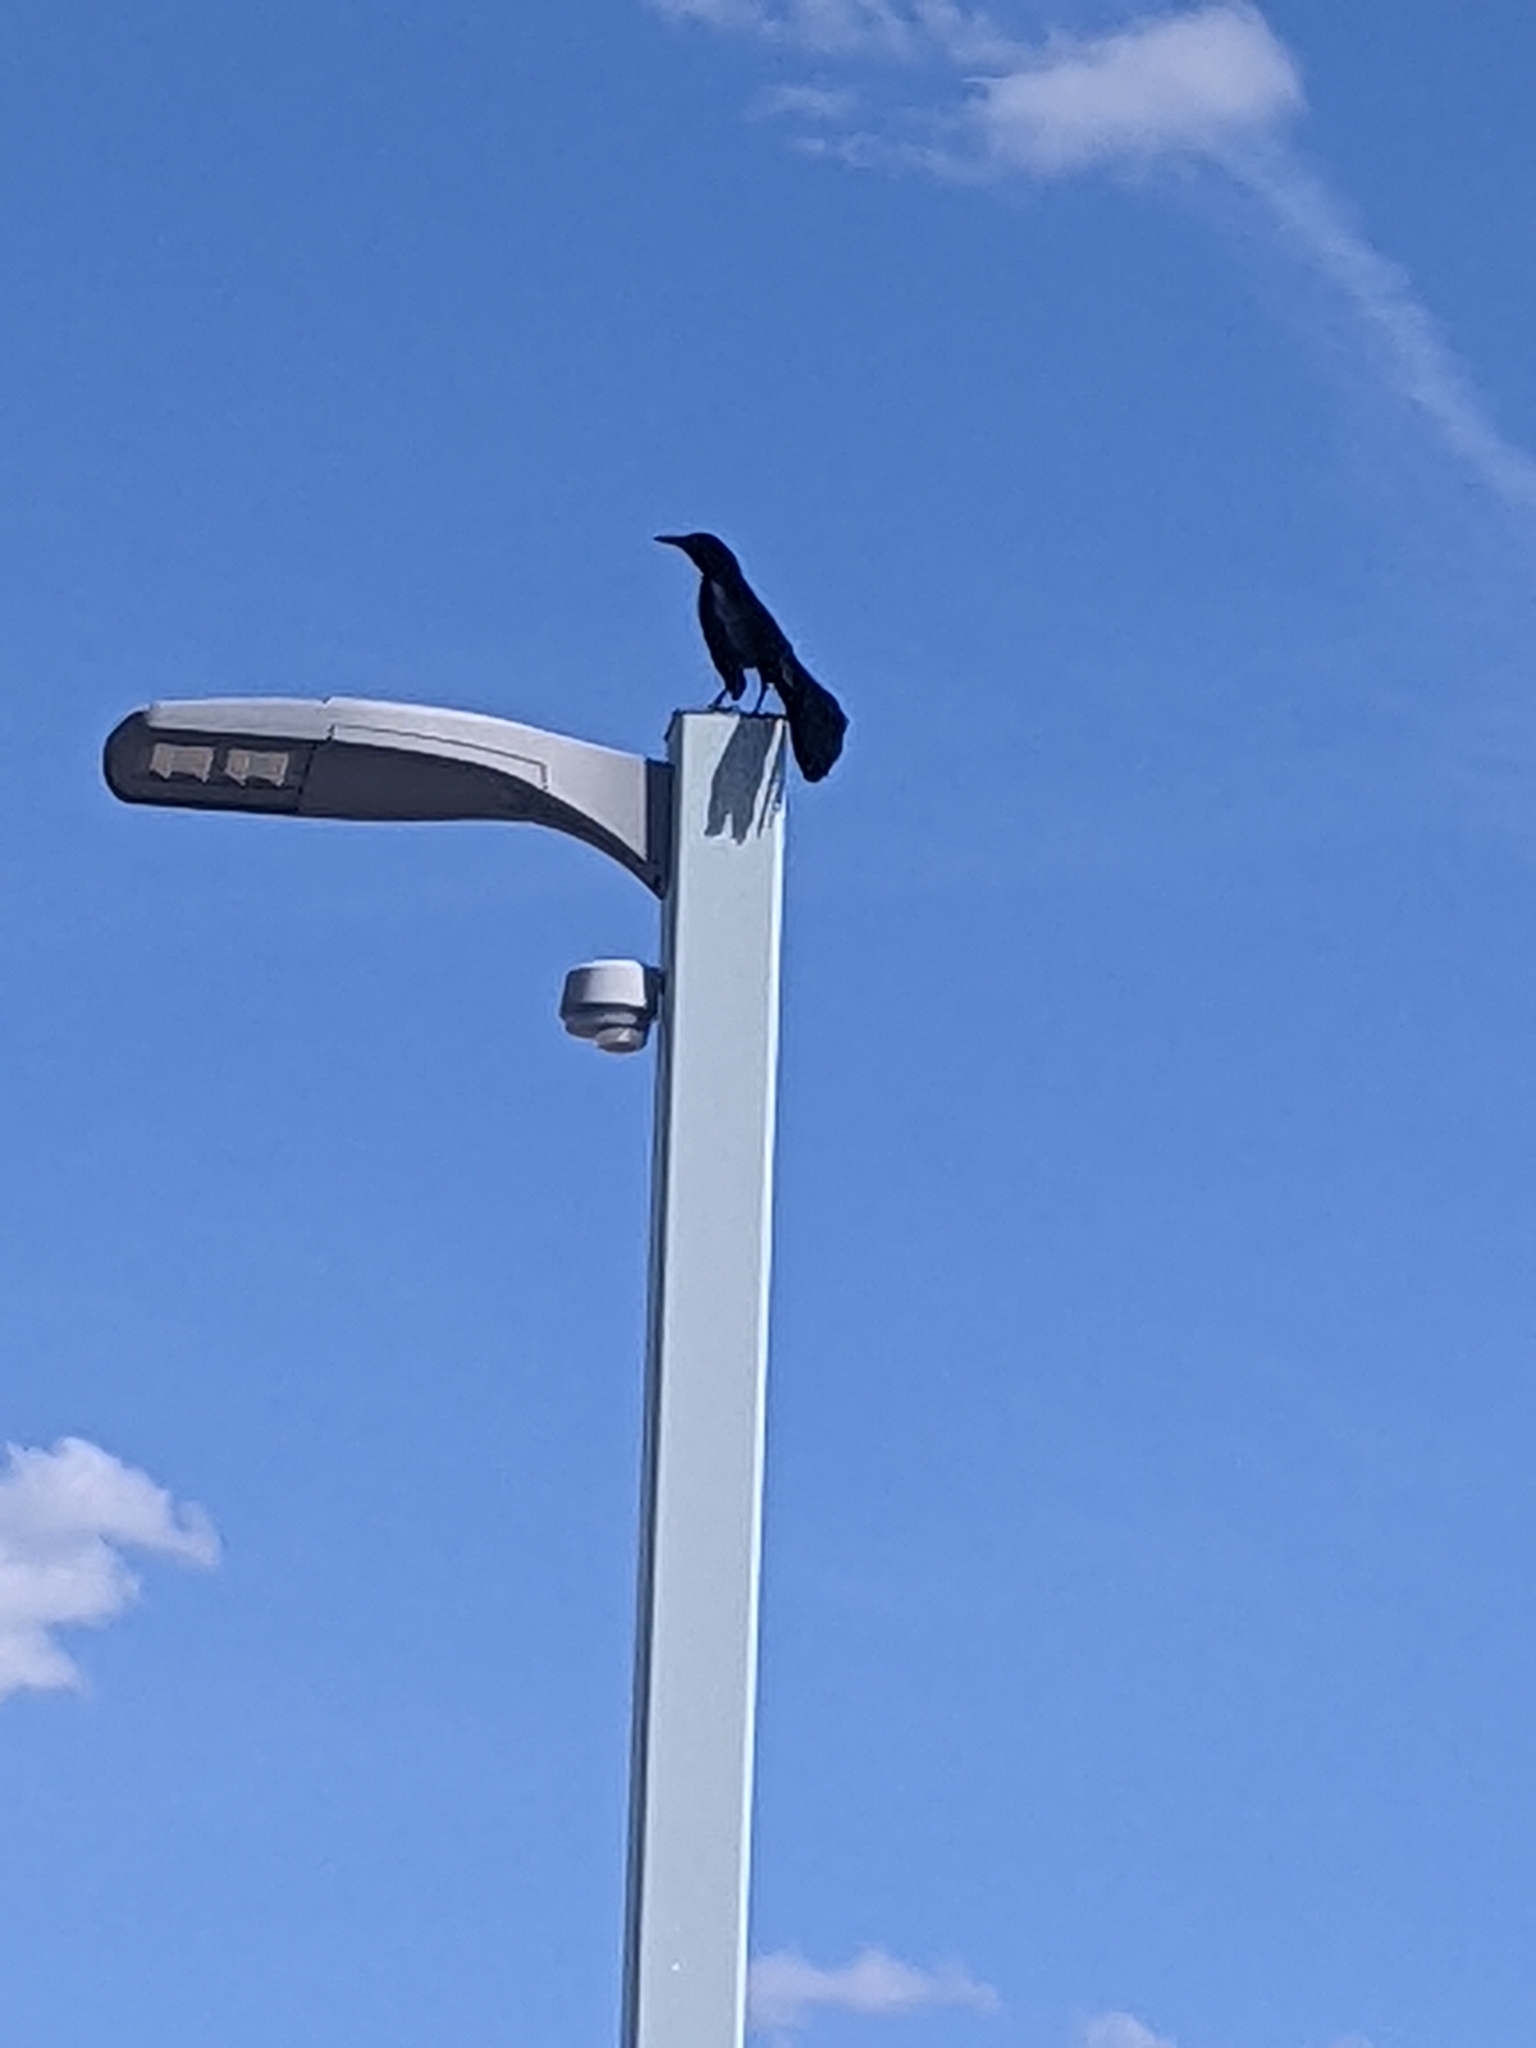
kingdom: Animalia
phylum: Chordata
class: Aves
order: Passeriformes
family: Icteridae
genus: Quiscalus
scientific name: Quiscalus mexicanus
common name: Great-tailed grackle
